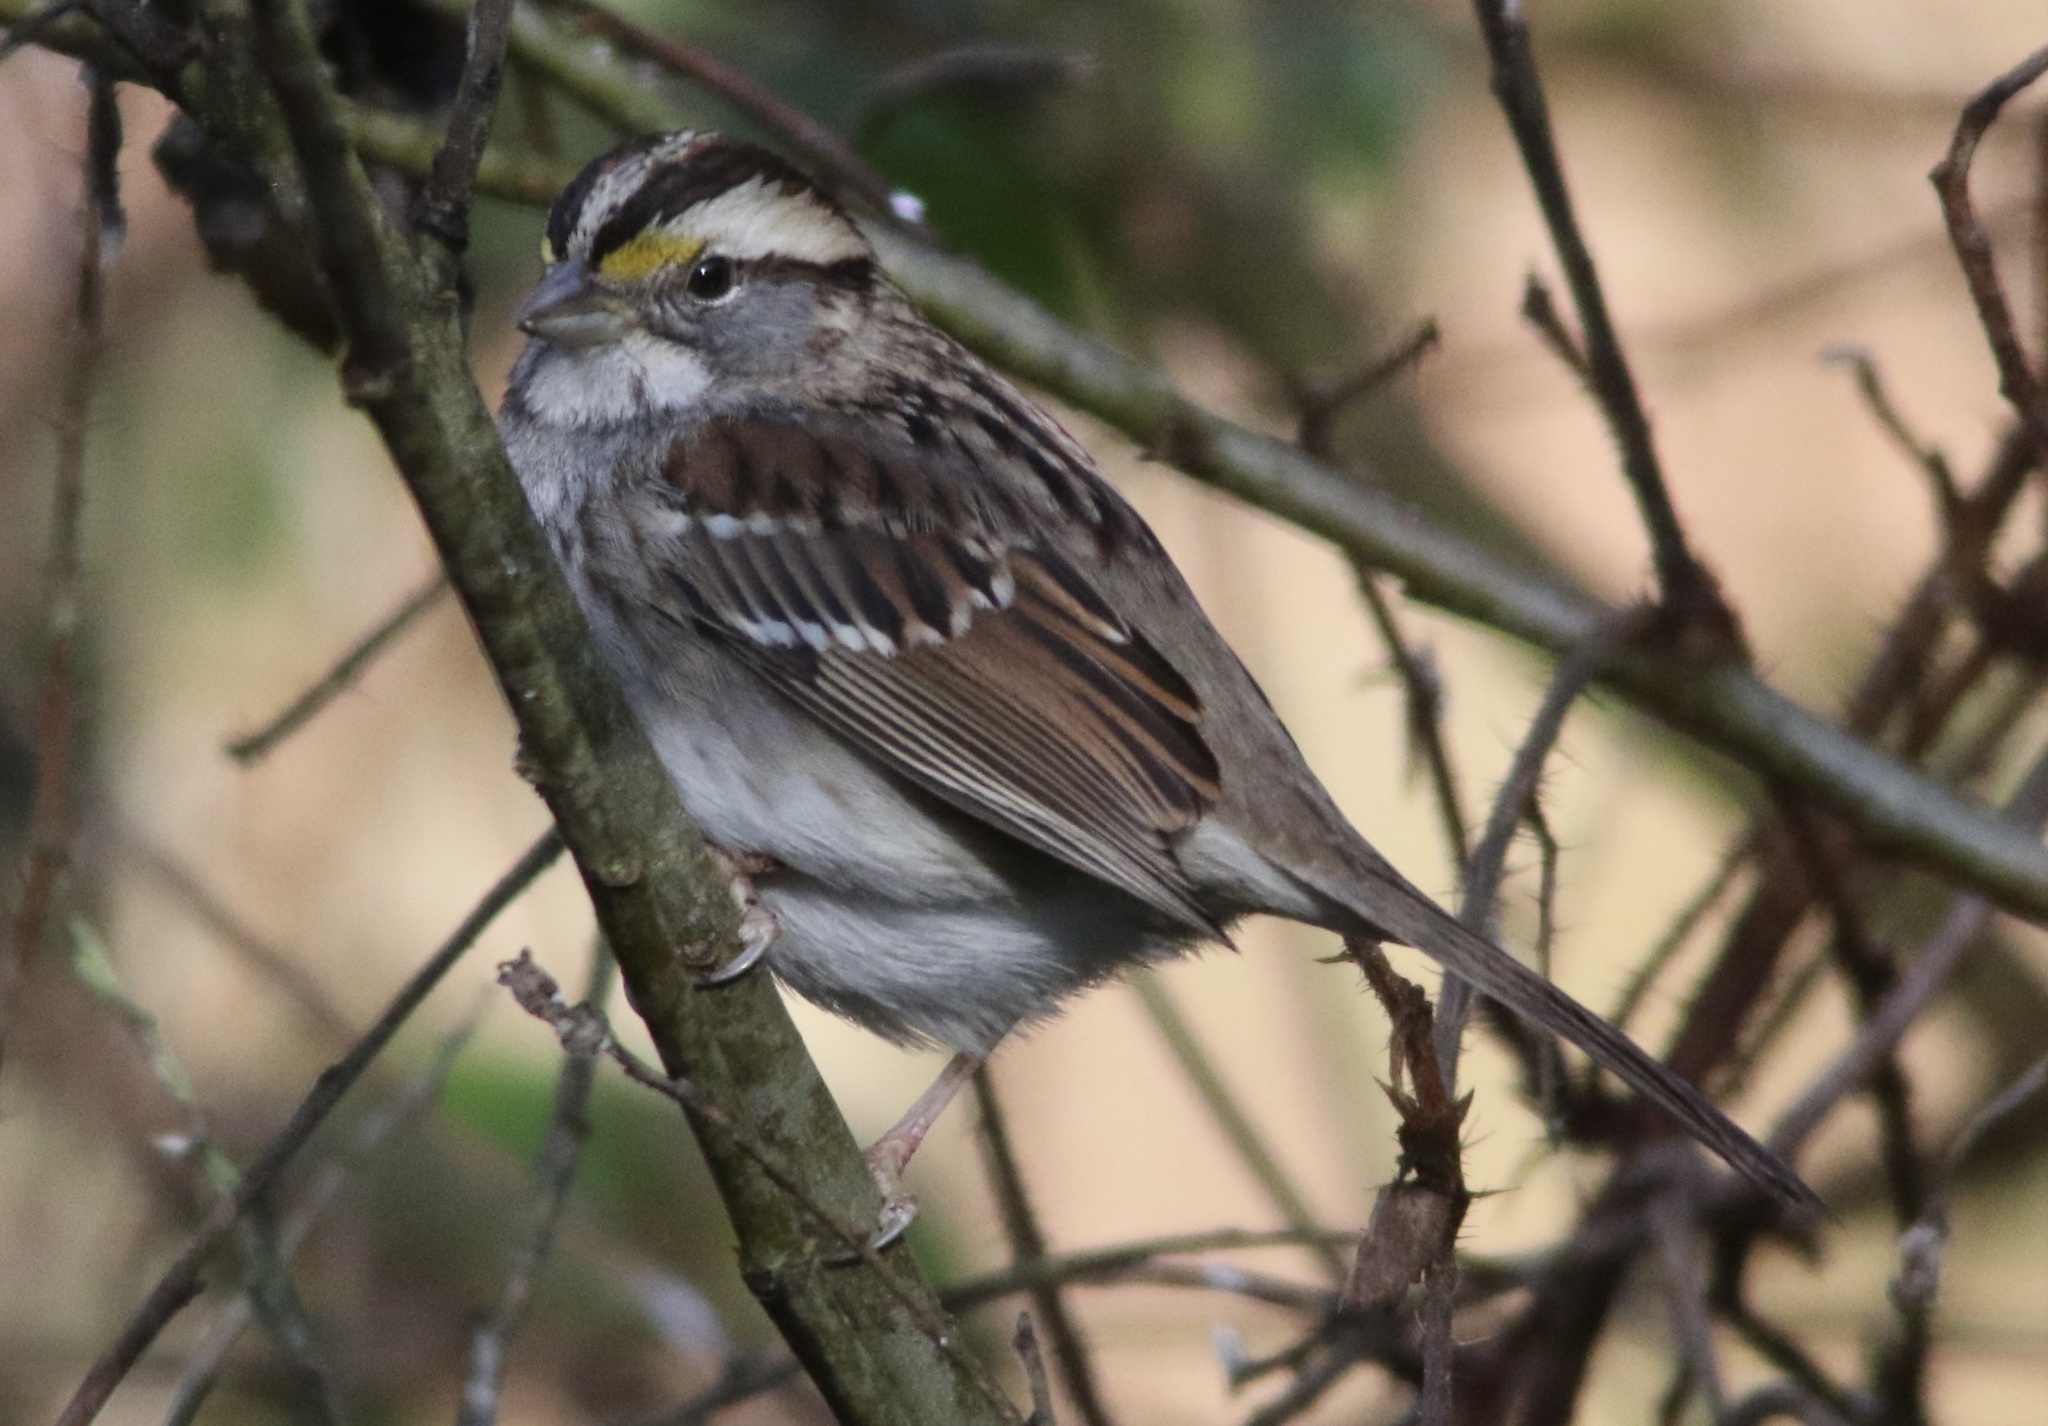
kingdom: Animalia
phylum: Chordata
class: Aves
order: Passeriformes
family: Passerellidae
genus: Zonotrichia
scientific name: Zonotrichia albicollis
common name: White-throated sparrow
